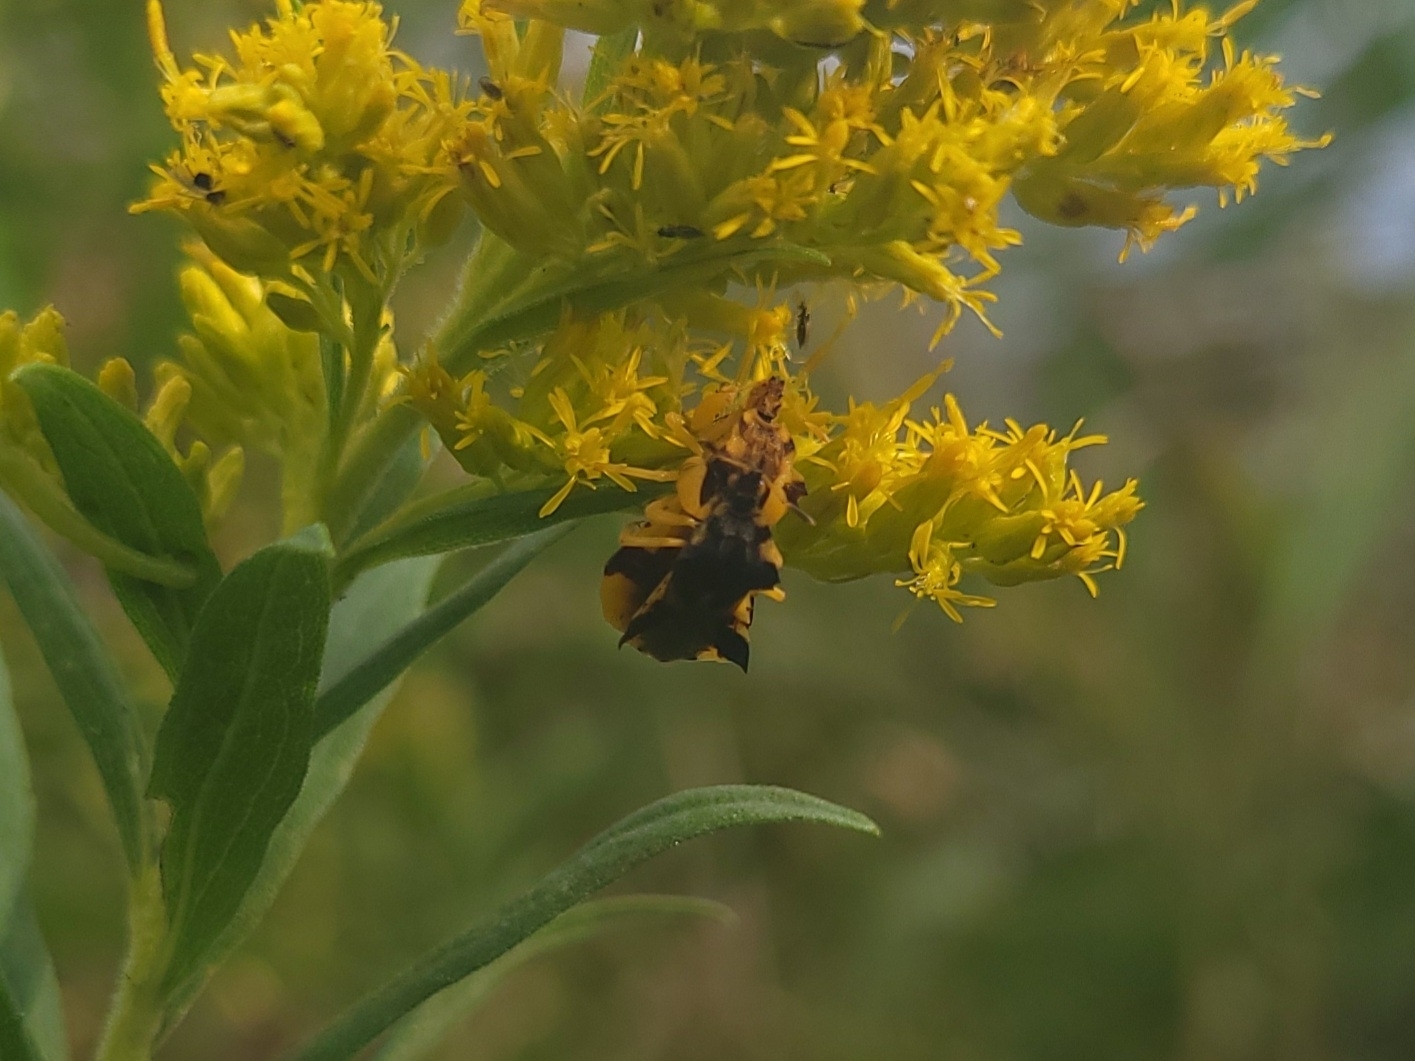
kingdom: Animalia
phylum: Arthropoda
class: Insecta
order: Hemiptera
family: Reduviidae
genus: Phymata
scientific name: Phymata americana
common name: Jagged ambush bug
